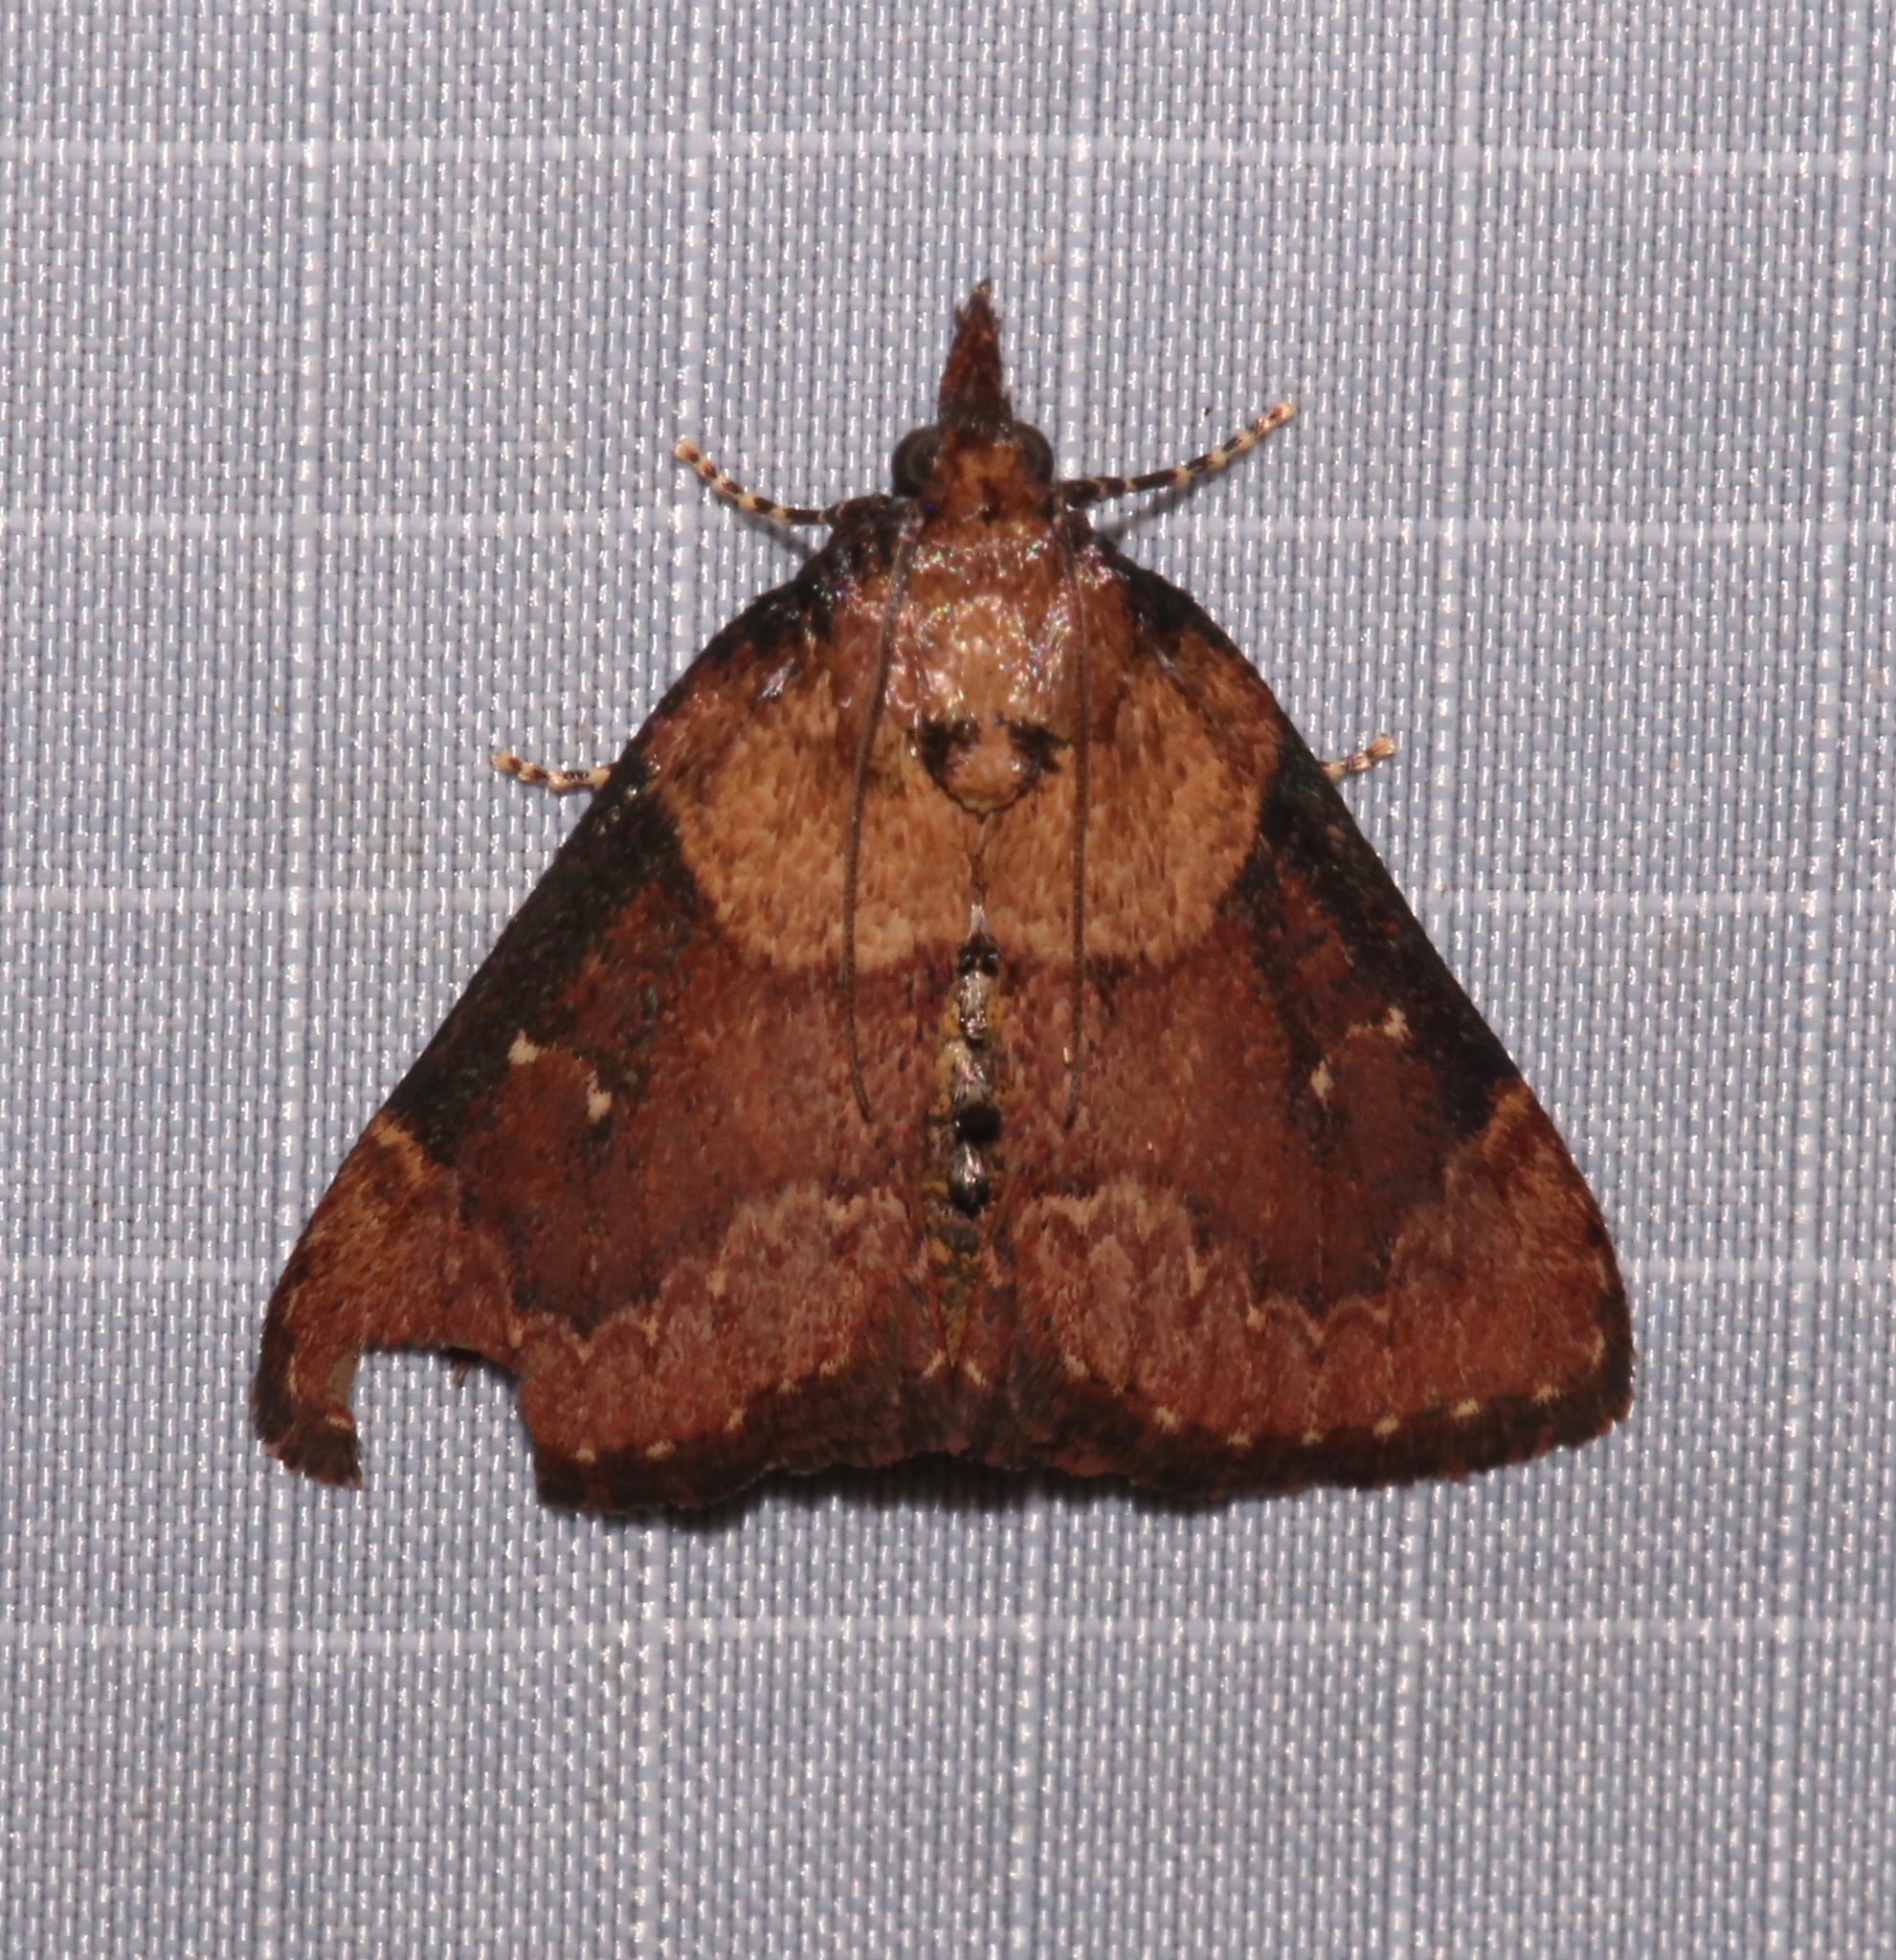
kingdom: Animalia
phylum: Arthropoda
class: Insecta
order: Lepidoptera
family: Pyralidae
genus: Omphalocera
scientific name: Omphalocera munroei
